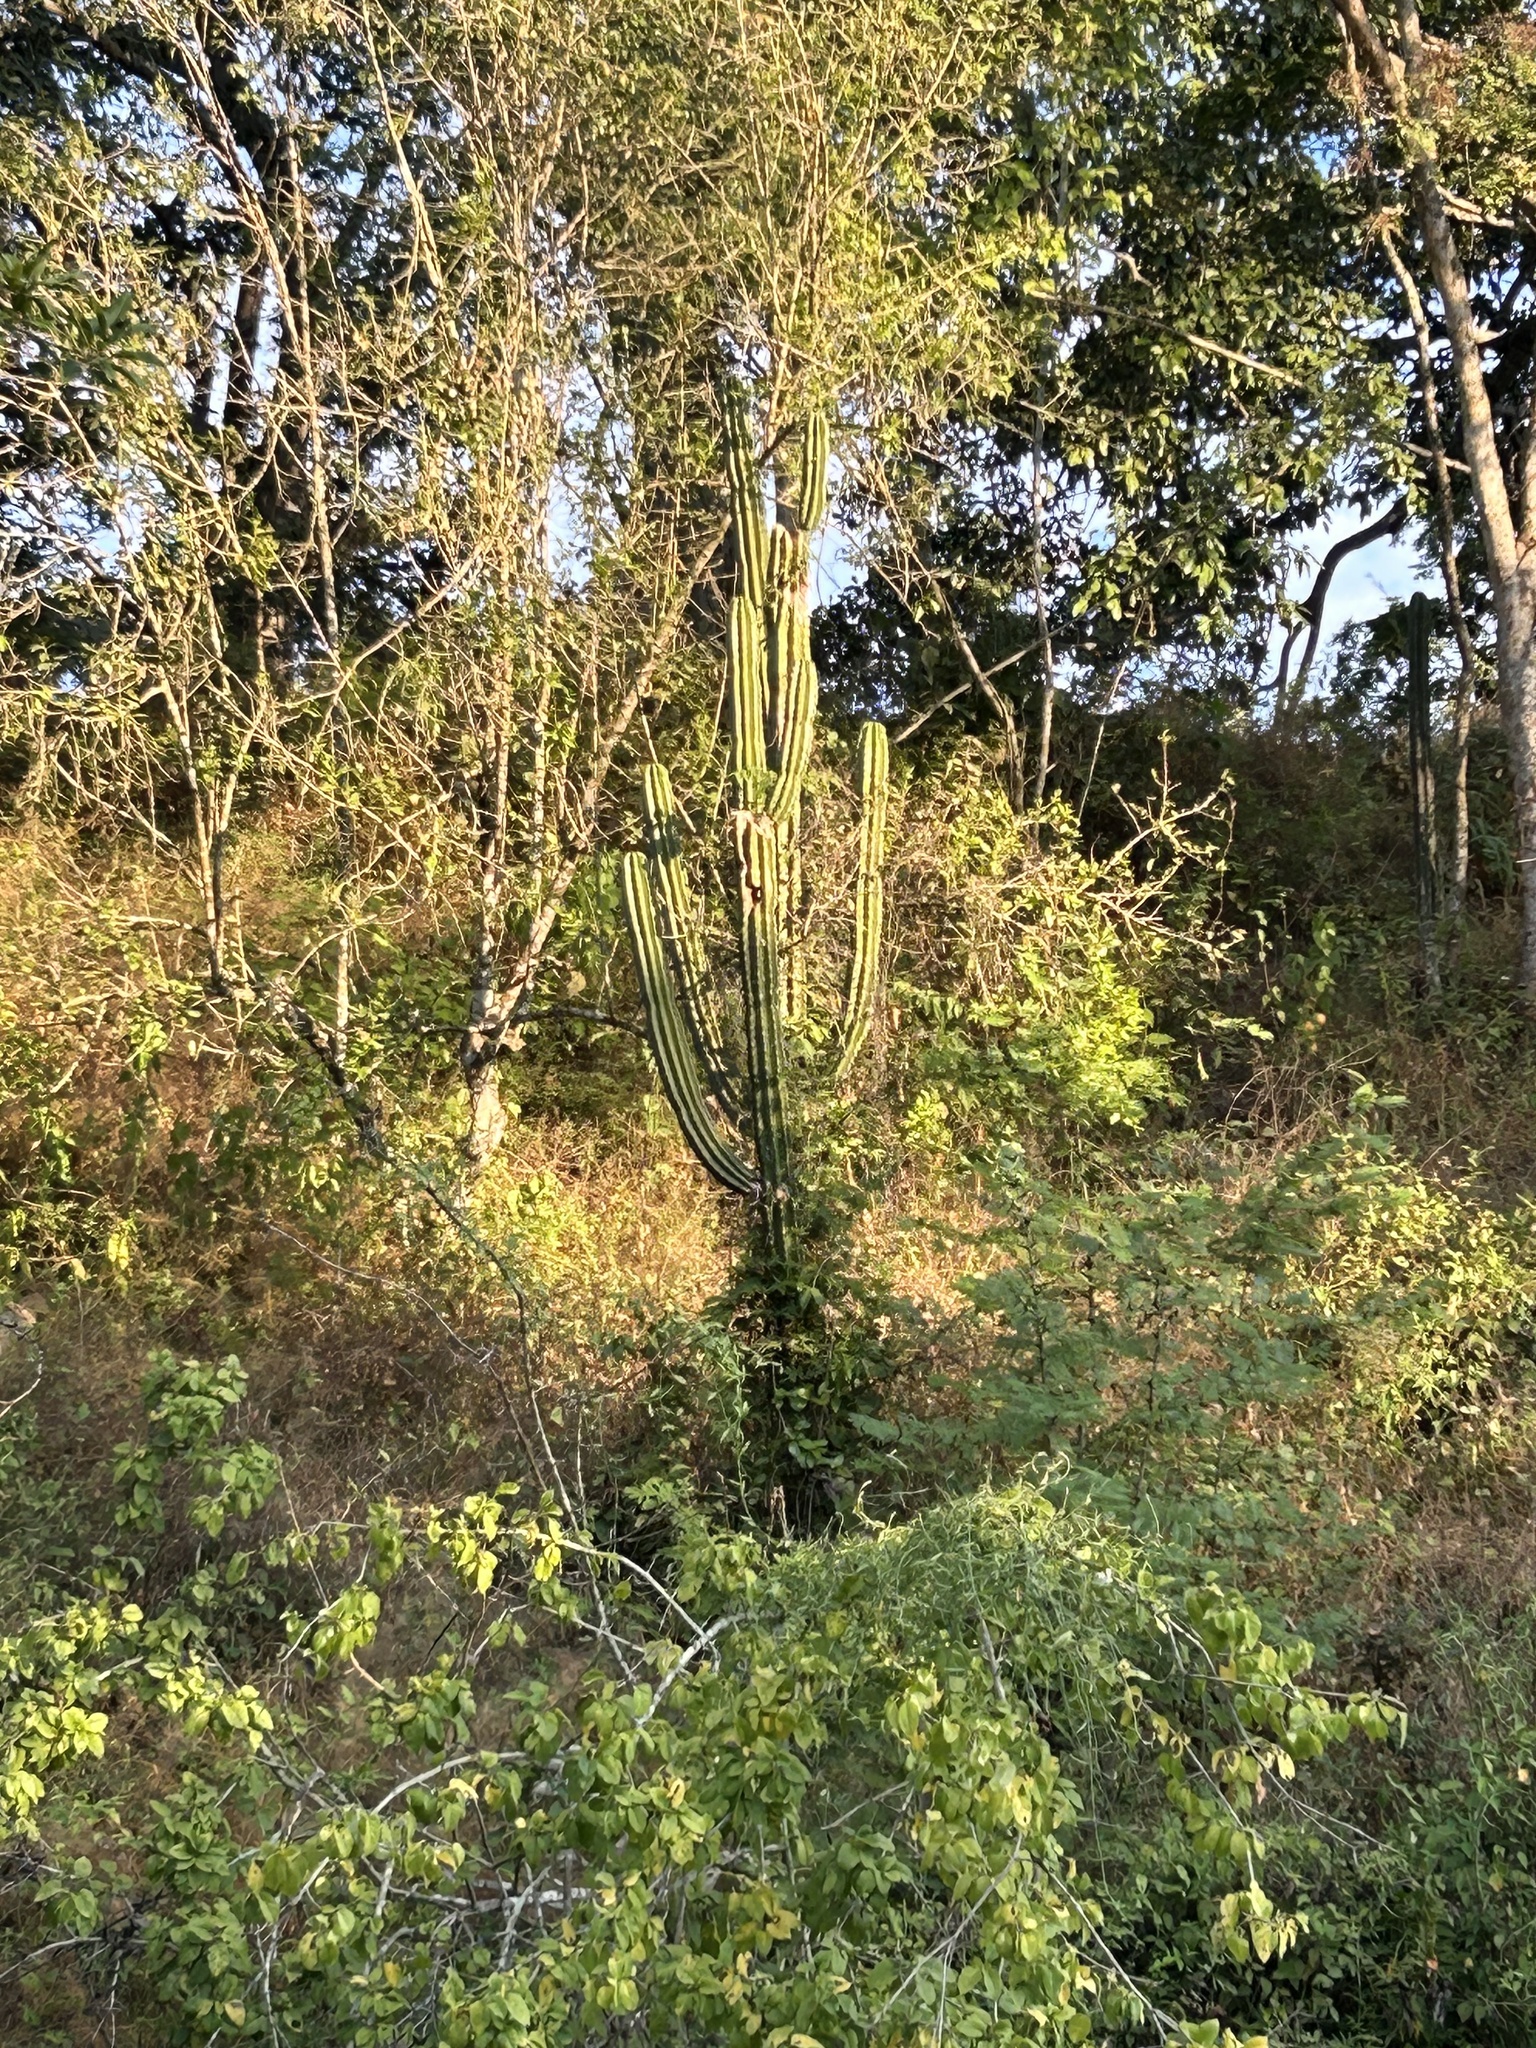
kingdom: Plantae
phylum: Tracheophyta
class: Magnoliopsida
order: Caryophyllales
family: Cactaceae
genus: Pachycereus
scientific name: Pachycereus pecten-aboriginum
